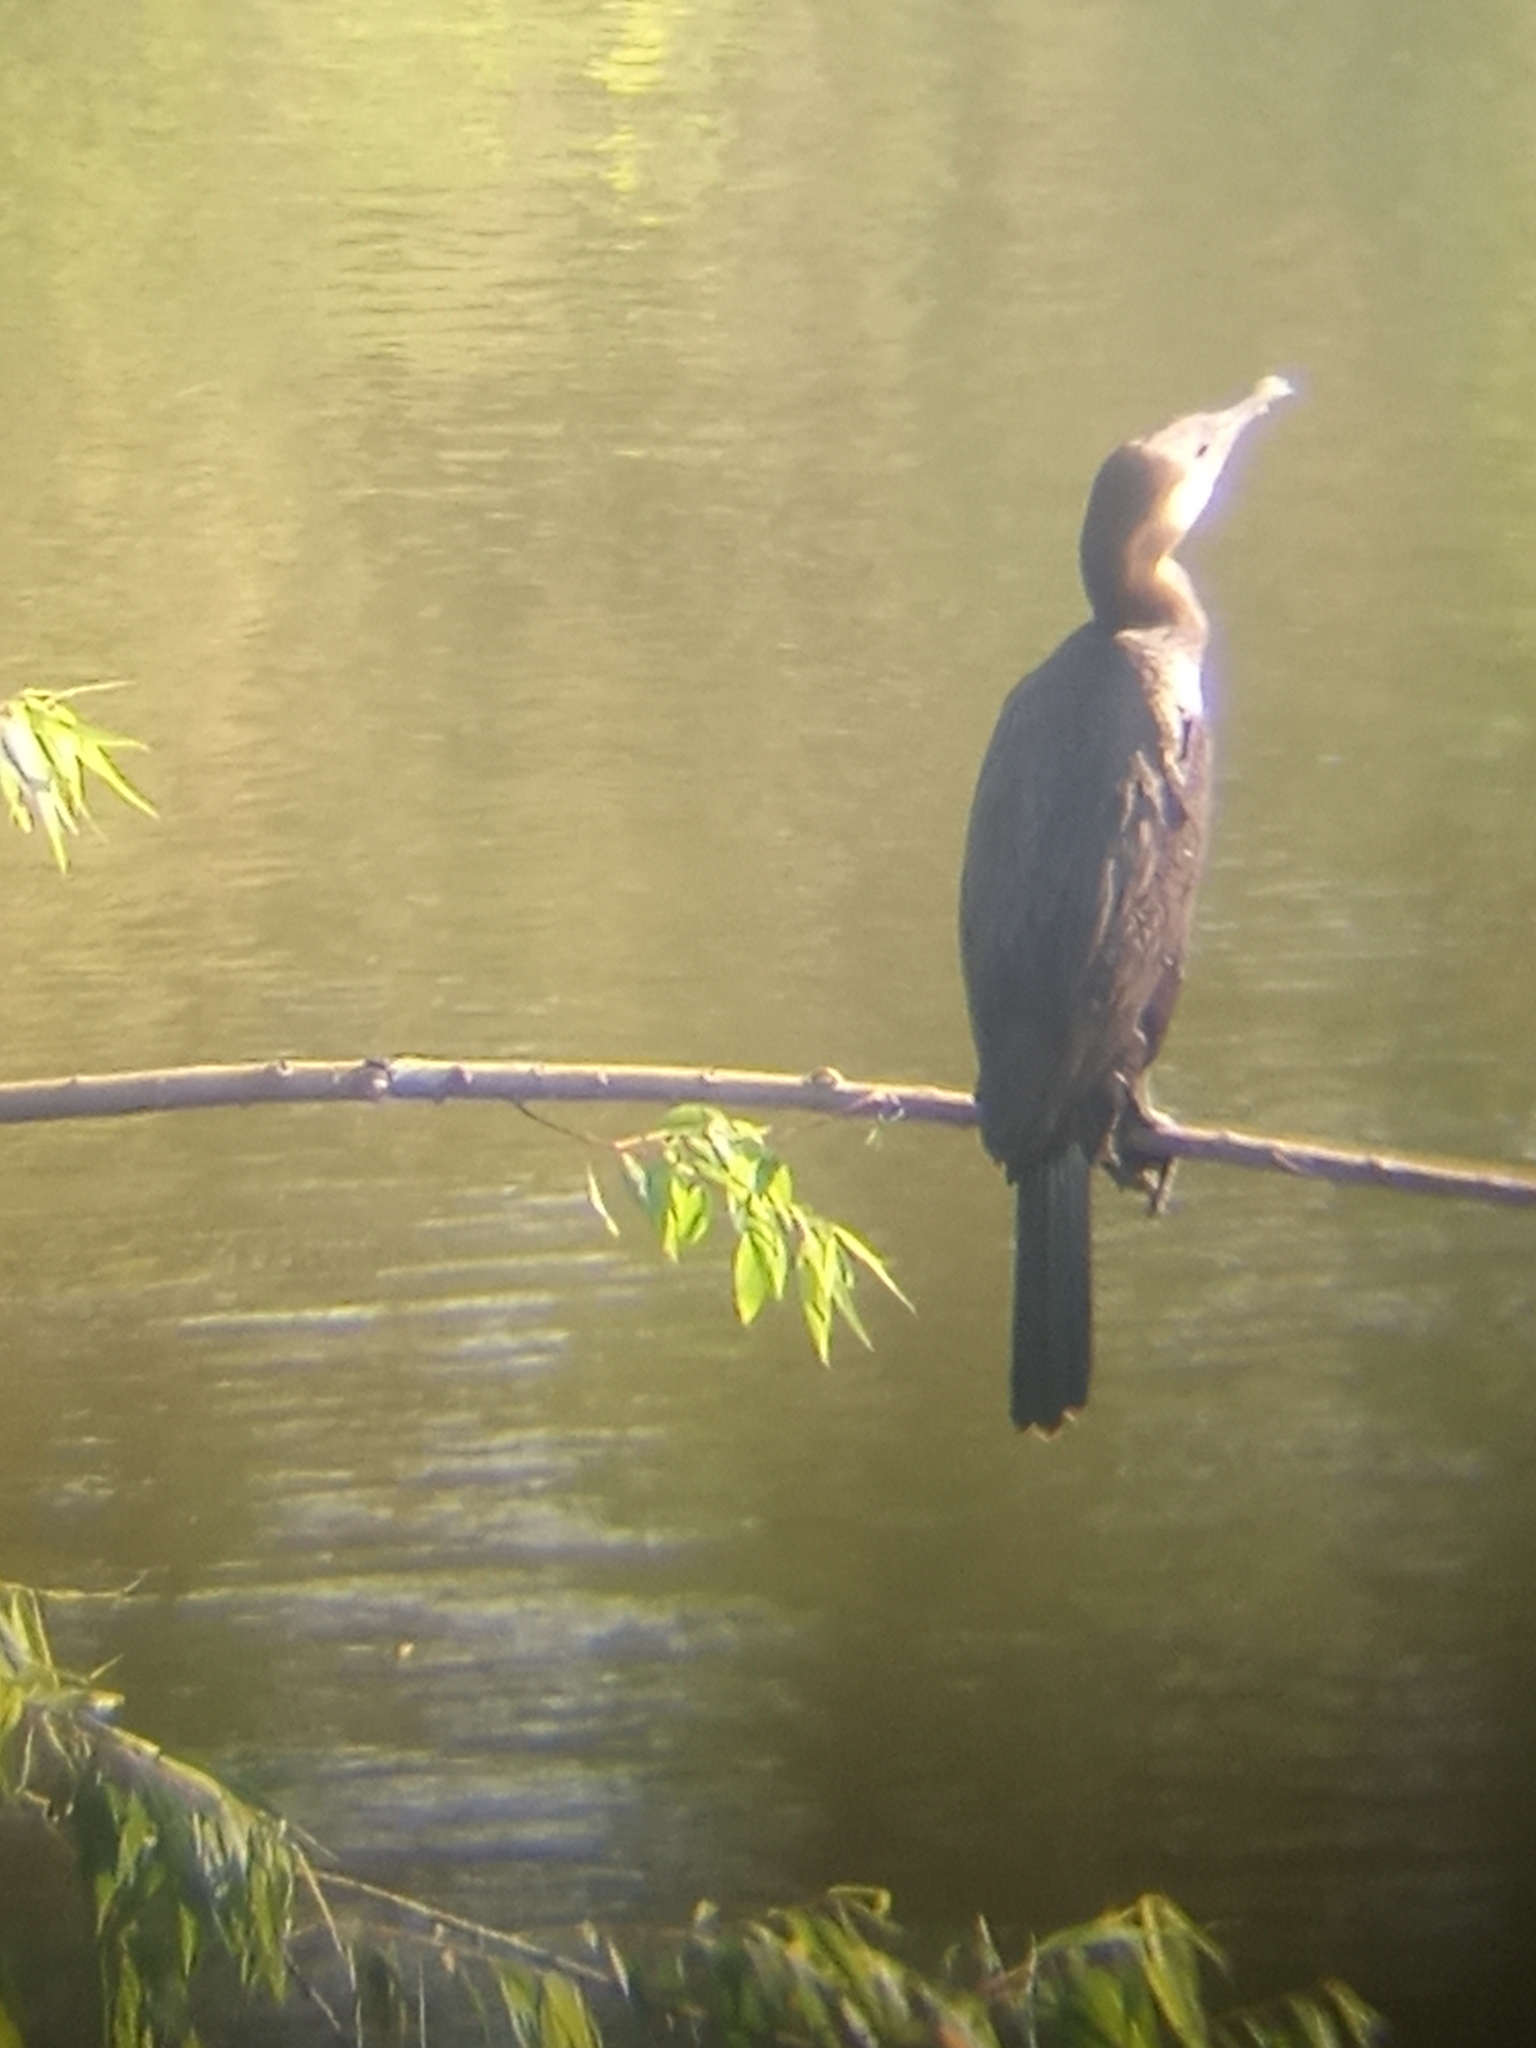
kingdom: Animalia
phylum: Chordata
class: Aves
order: Suliformes
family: Phalacrocoracidae
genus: Phalacrocorax
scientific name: Phalacrocorax brasilianus
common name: Neotropic cormorant
